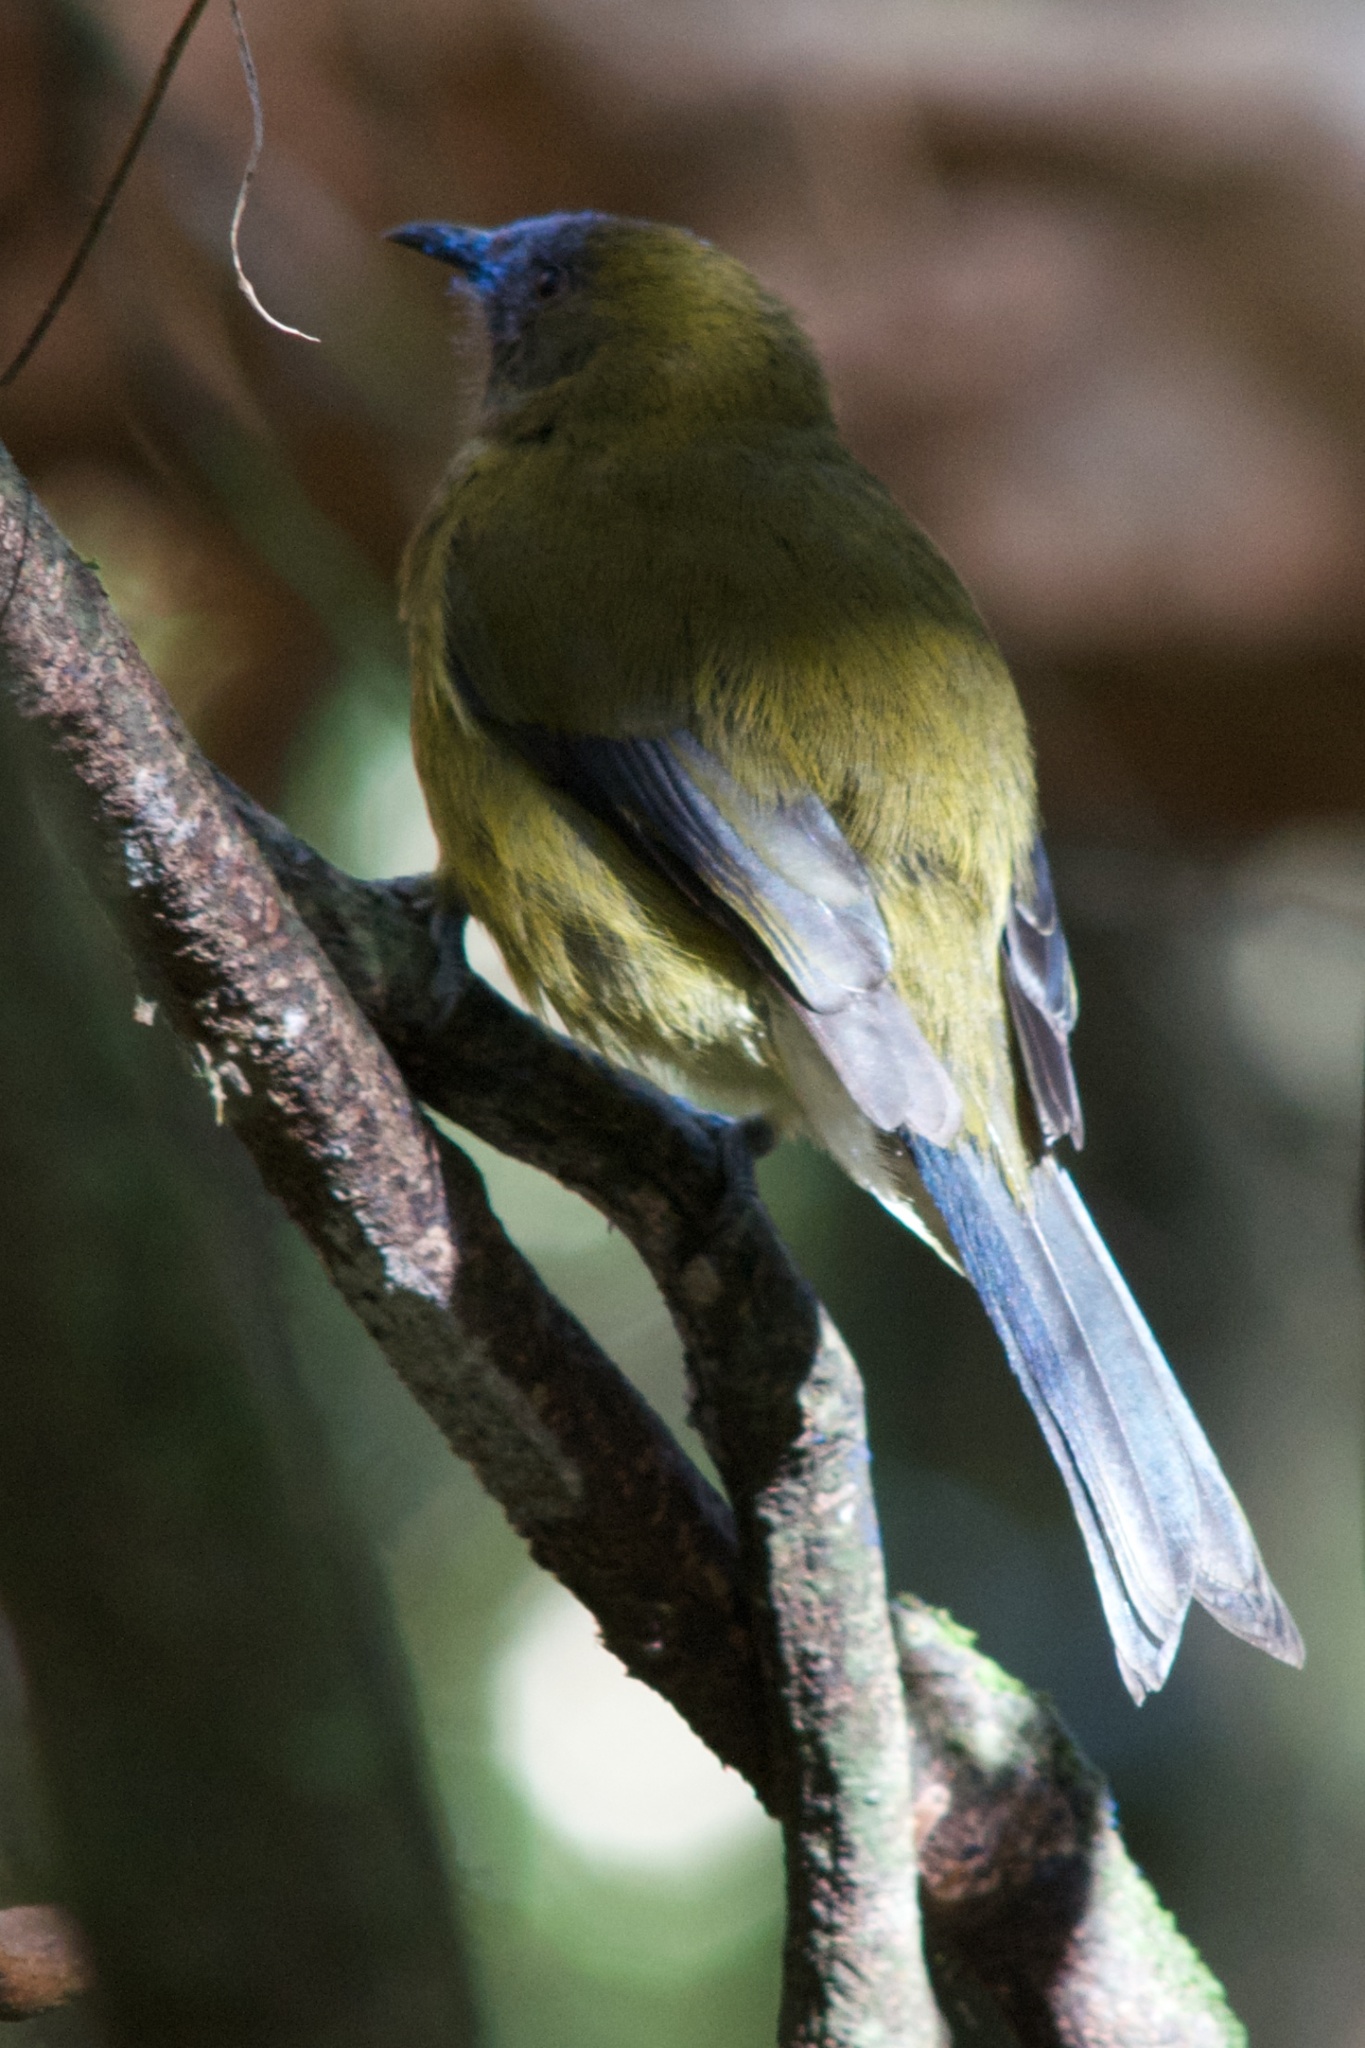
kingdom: Animalia
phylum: Chordata
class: Aves
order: Passeriformes
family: Meliphagidae
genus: Anthornis
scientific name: Anthornis melanura
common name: New zealand bellbird
